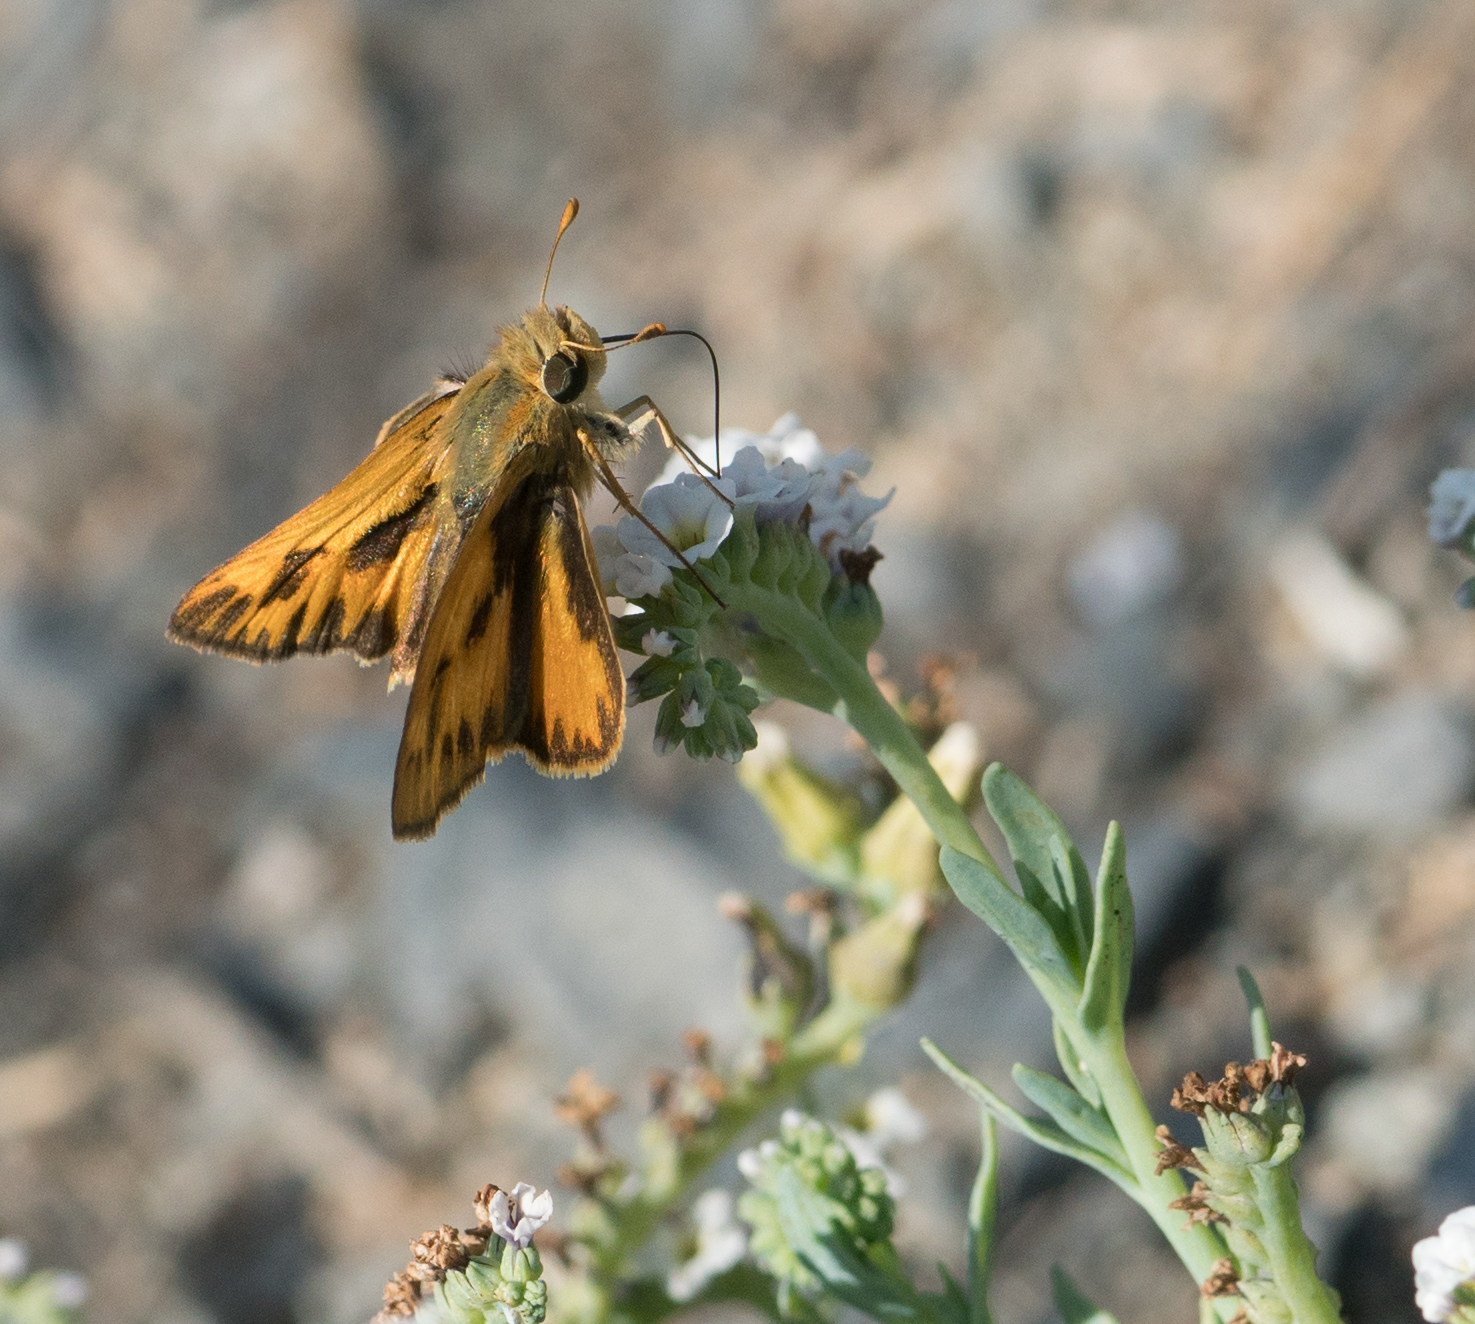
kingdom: Animalia
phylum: Arthropoda
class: Insecta
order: Lepidoptera
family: Hesperiidae
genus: Hylephila
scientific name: Hylephila phyleus
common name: Fiery skipper
